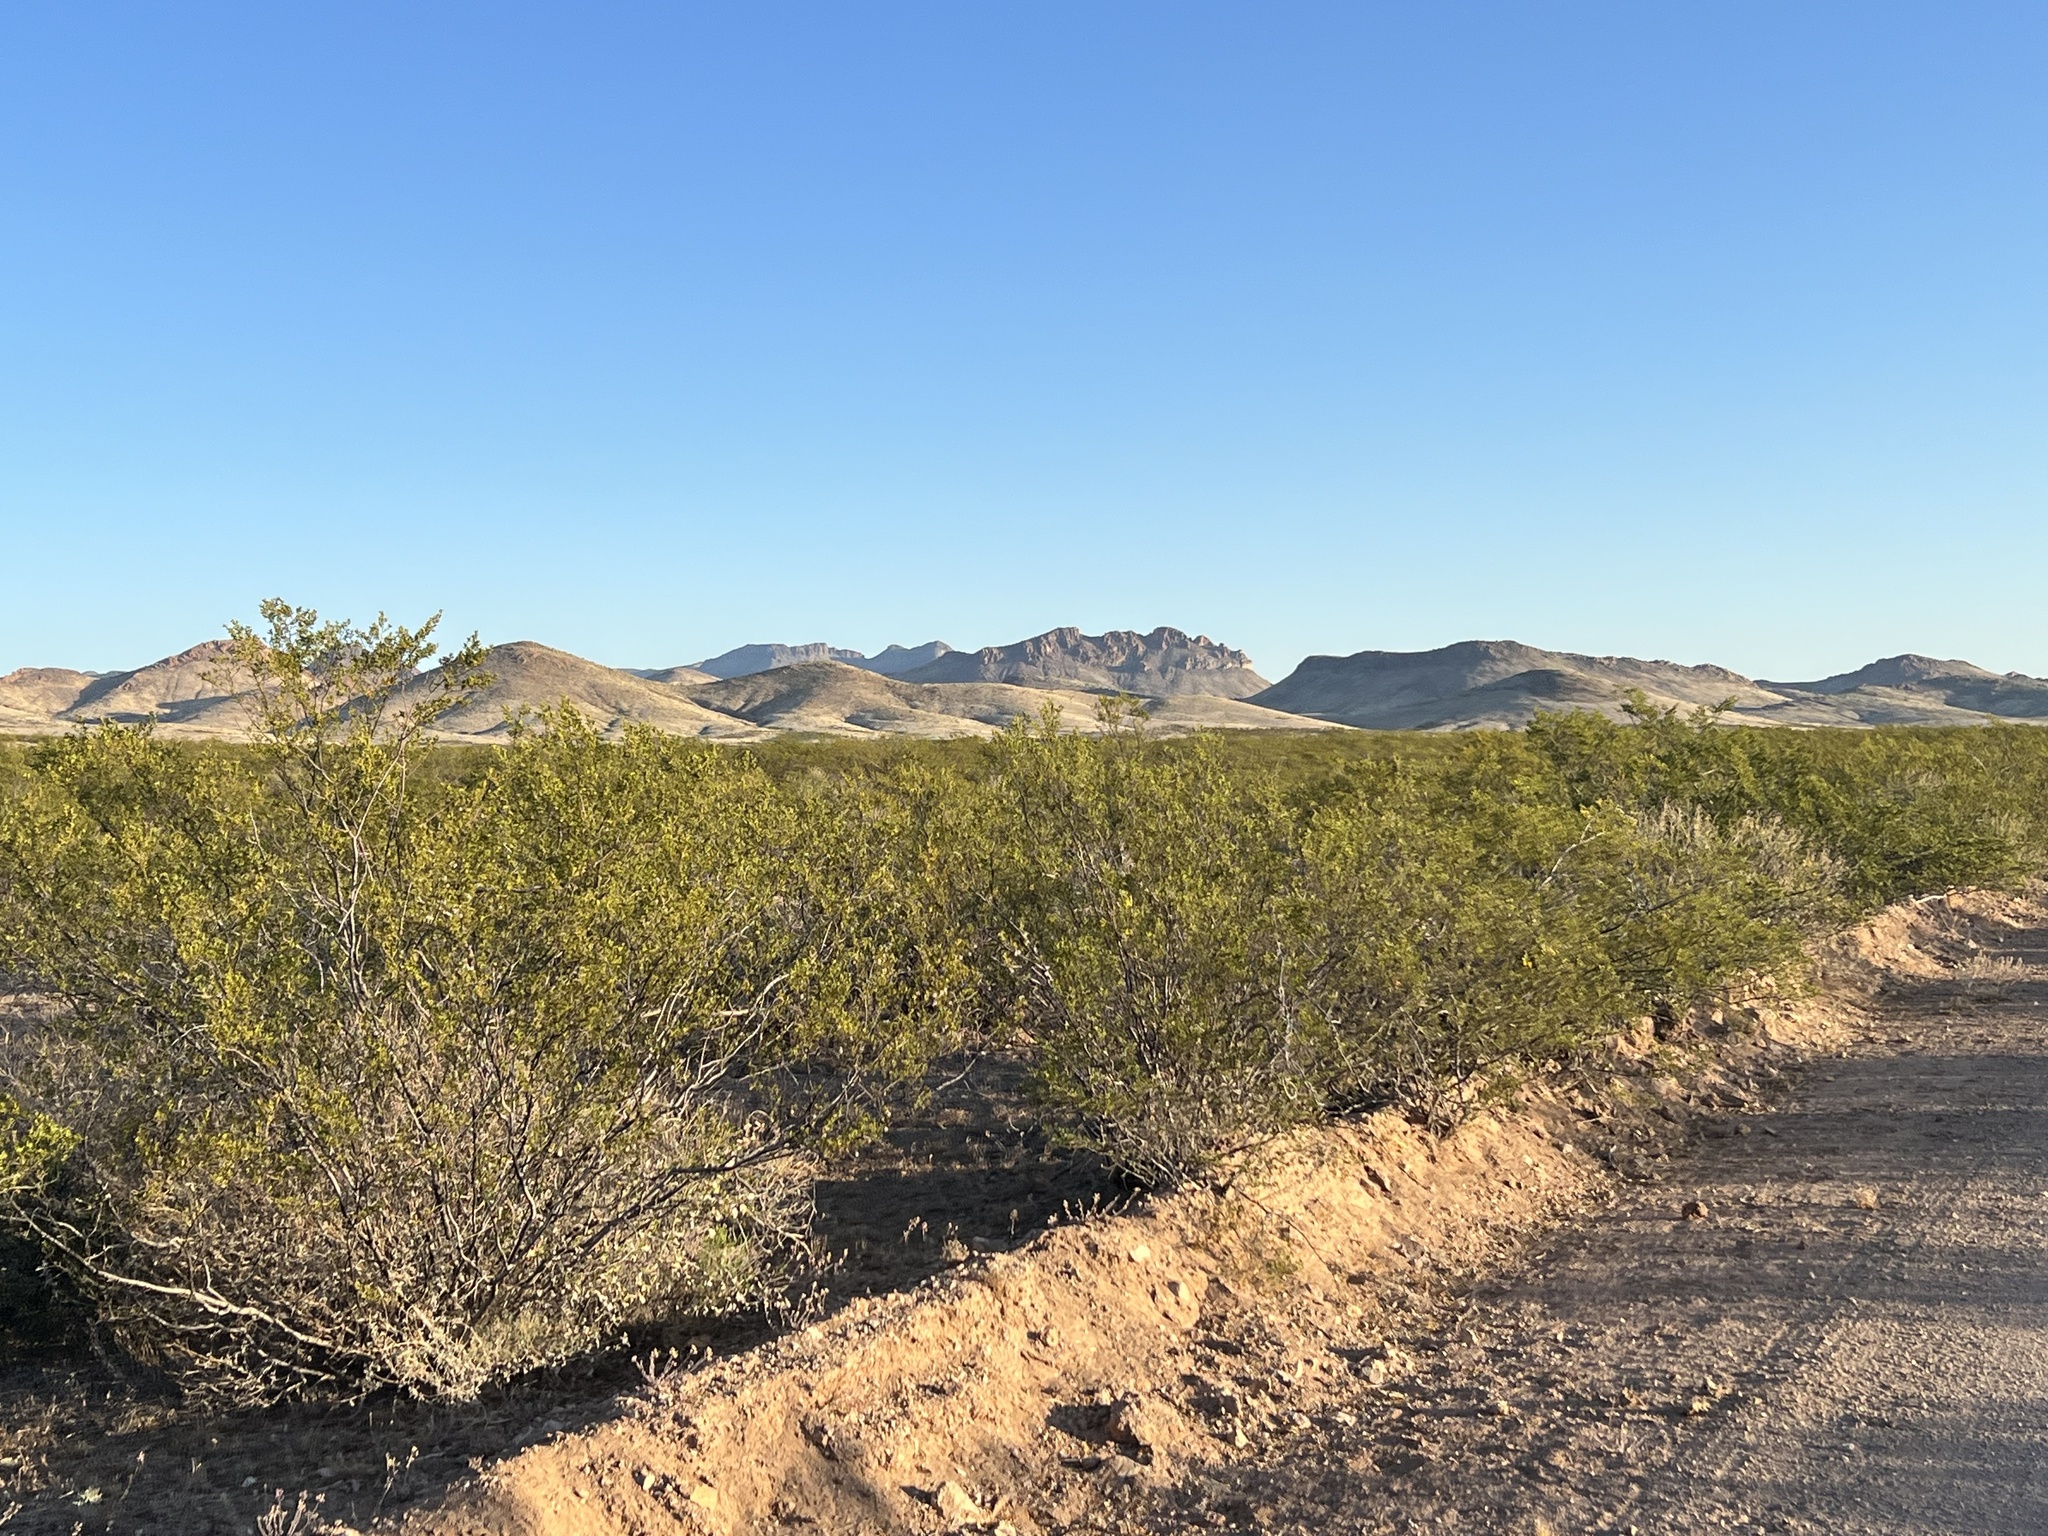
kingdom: Plantae
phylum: Tracheophyta
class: Magnoliopsida
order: Zygophyllales
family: Zygophyllaceae
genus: Larrea
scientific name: Larrea tridentata
